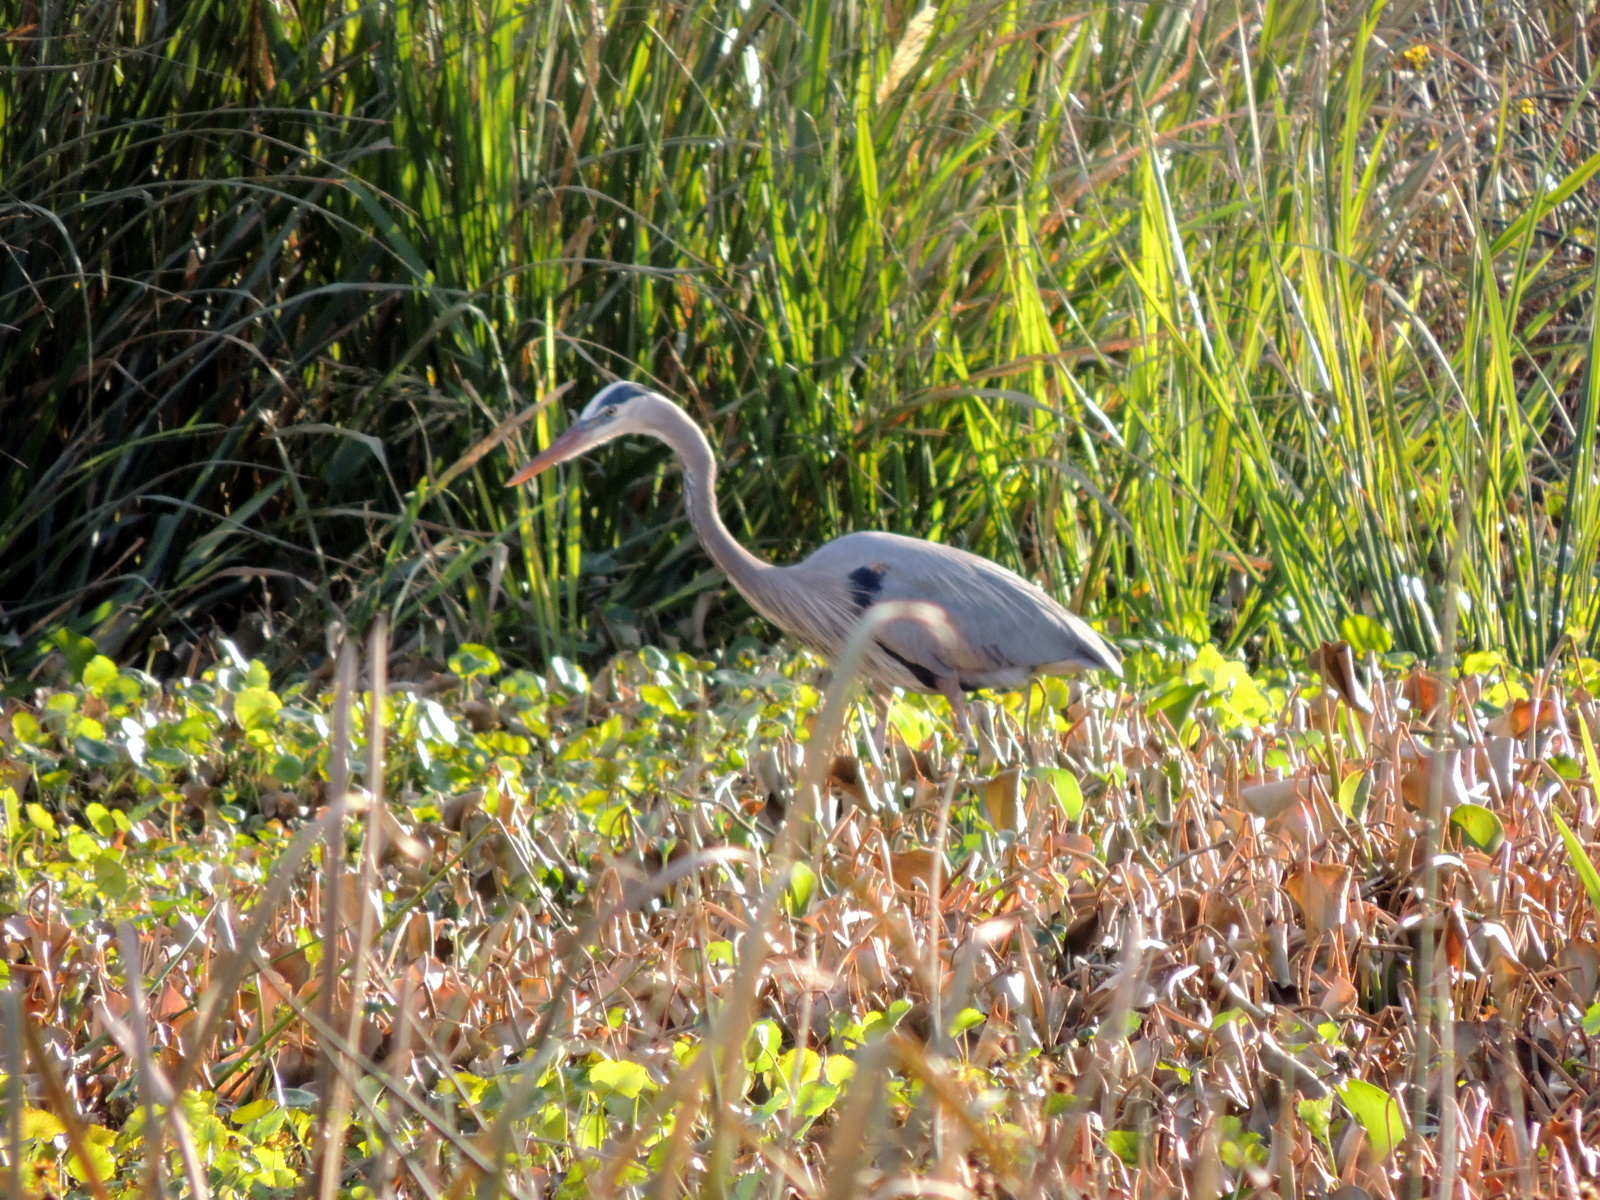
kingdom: Animalia
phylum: Chordata
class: Aves
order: Pelecaniformes
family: Ardeidae
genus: Ardea
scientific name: Ardea herodias
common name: Great blue heron
